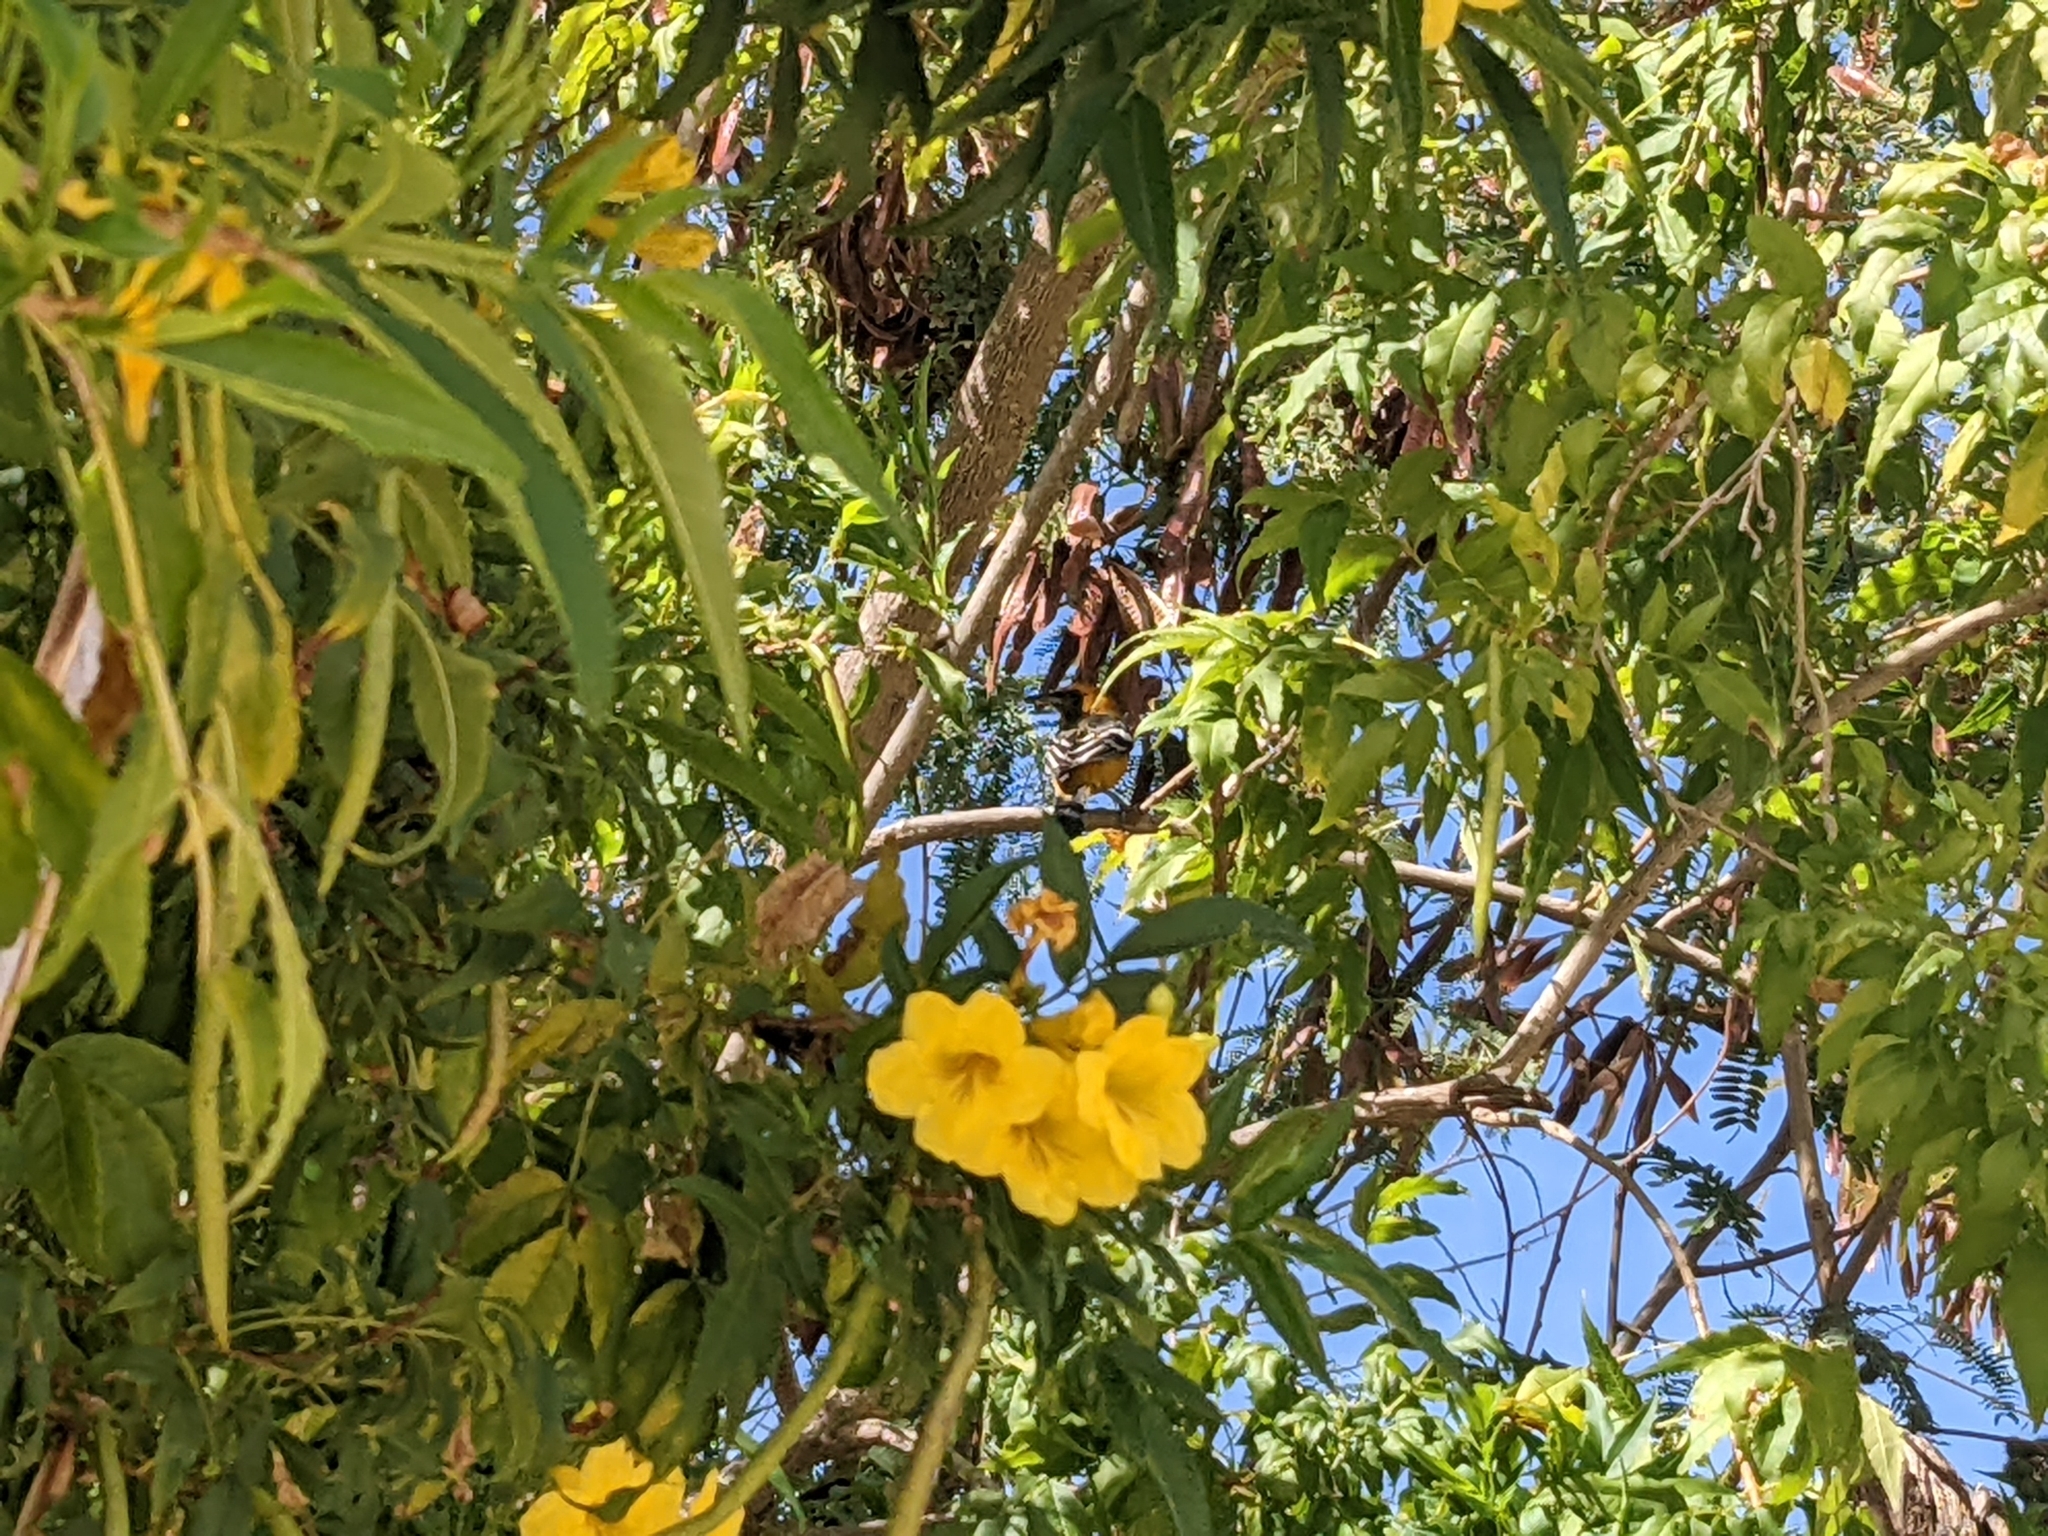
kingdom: Plantae
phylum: Tracheophyta
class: Magnoliopsida
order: Lamiales
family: Bignoniaceae
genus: Tecoma
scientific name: Tecoma stans
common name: Yellow trumpetbush
